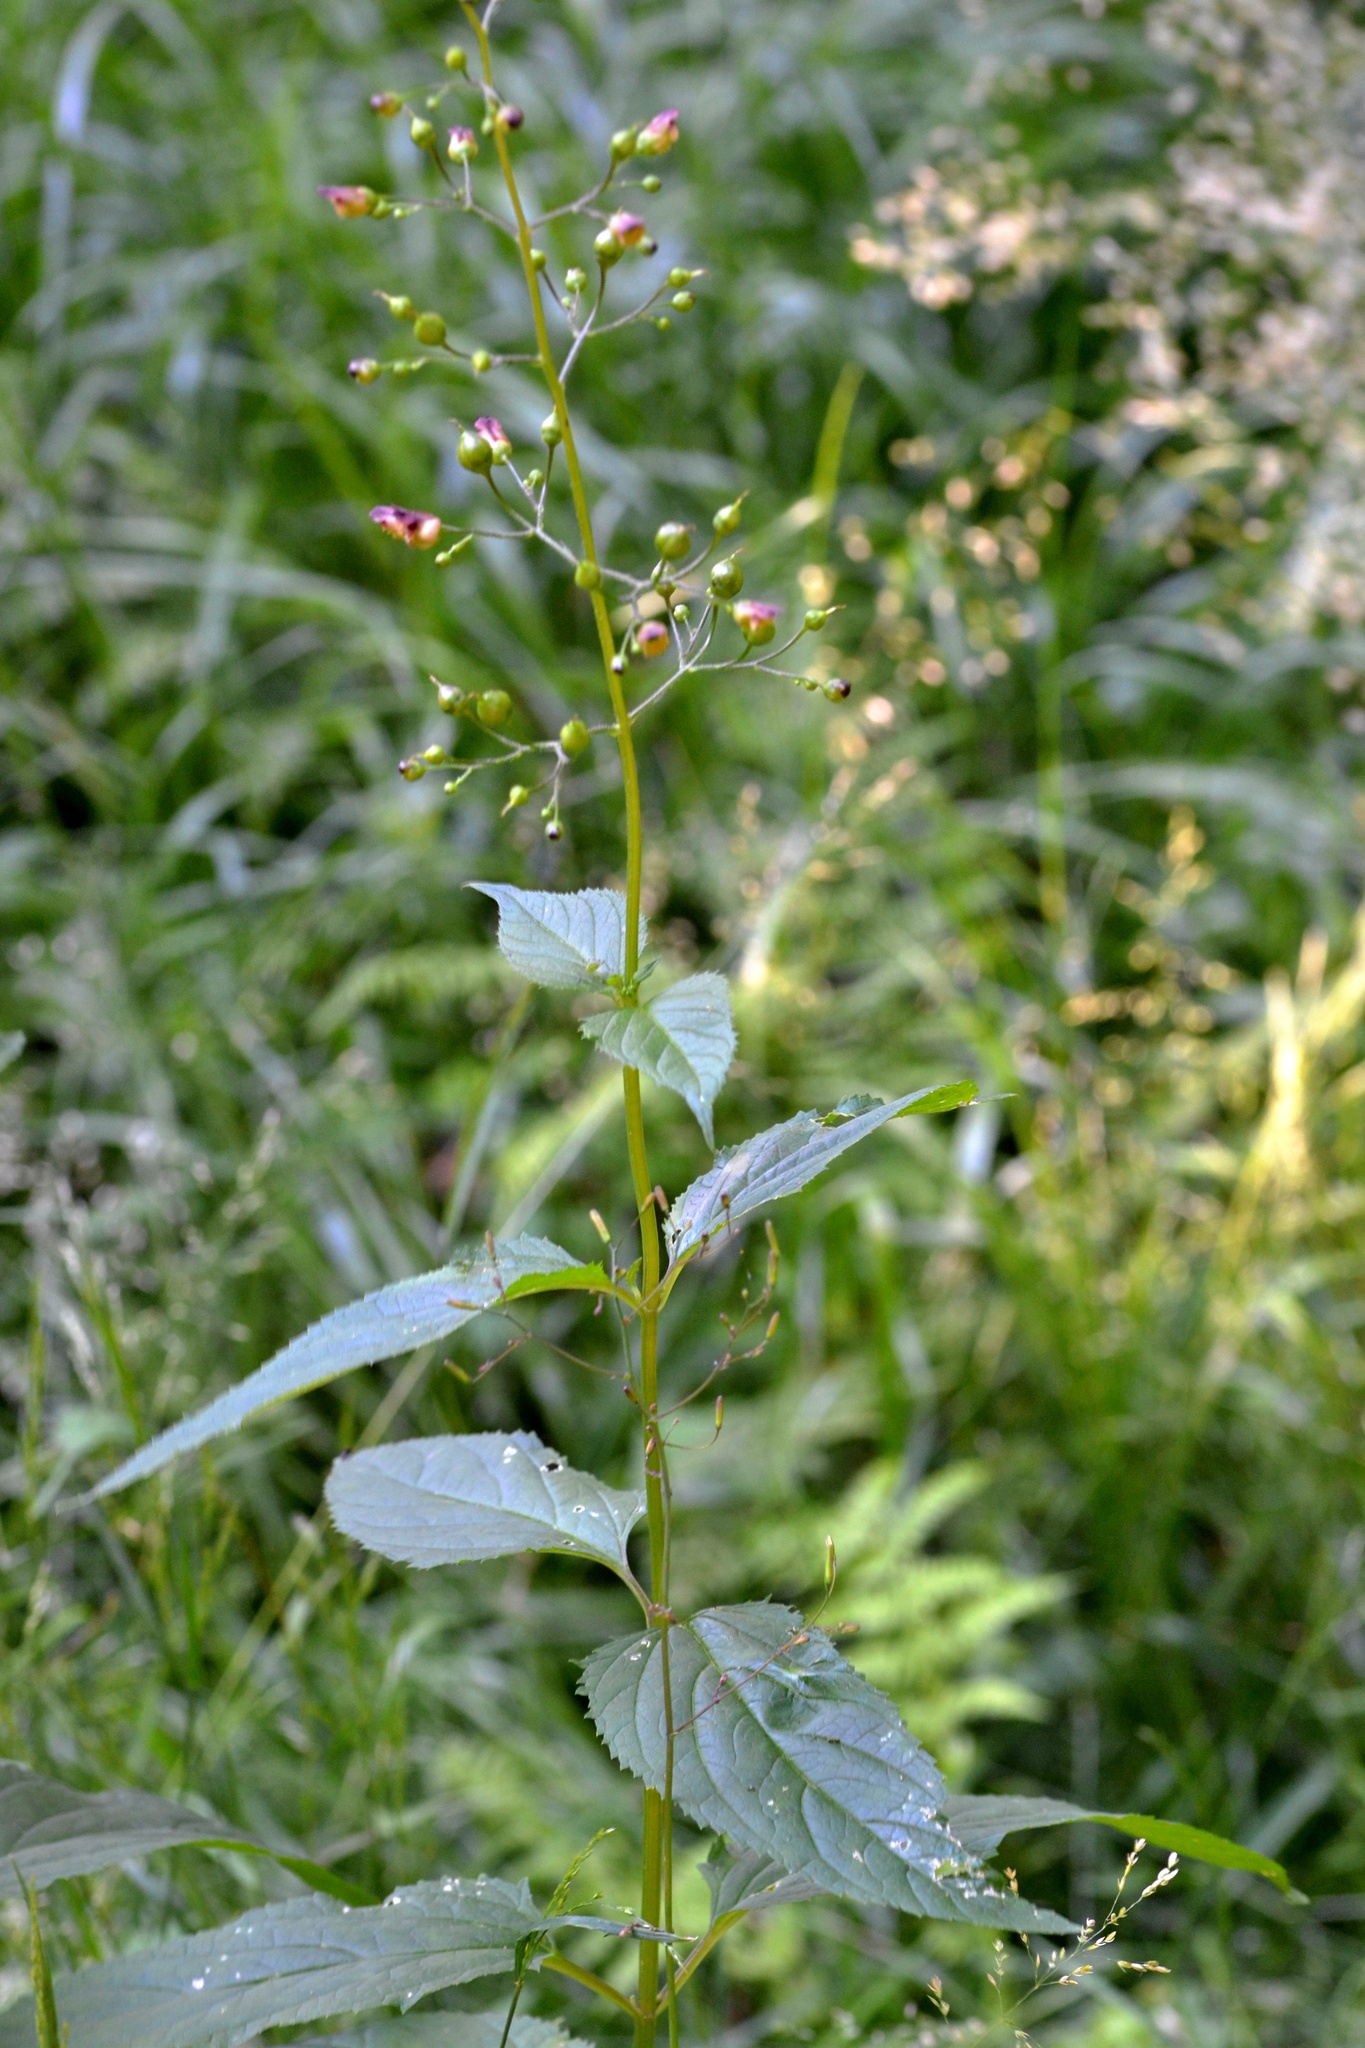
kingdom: Plantae
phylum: Tracheophyta
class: Magnoliopsida
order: Lamiales
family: Scrophulariaceae
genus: Scrophularia
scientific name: Scrophularia nodosa
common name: Common figwort
